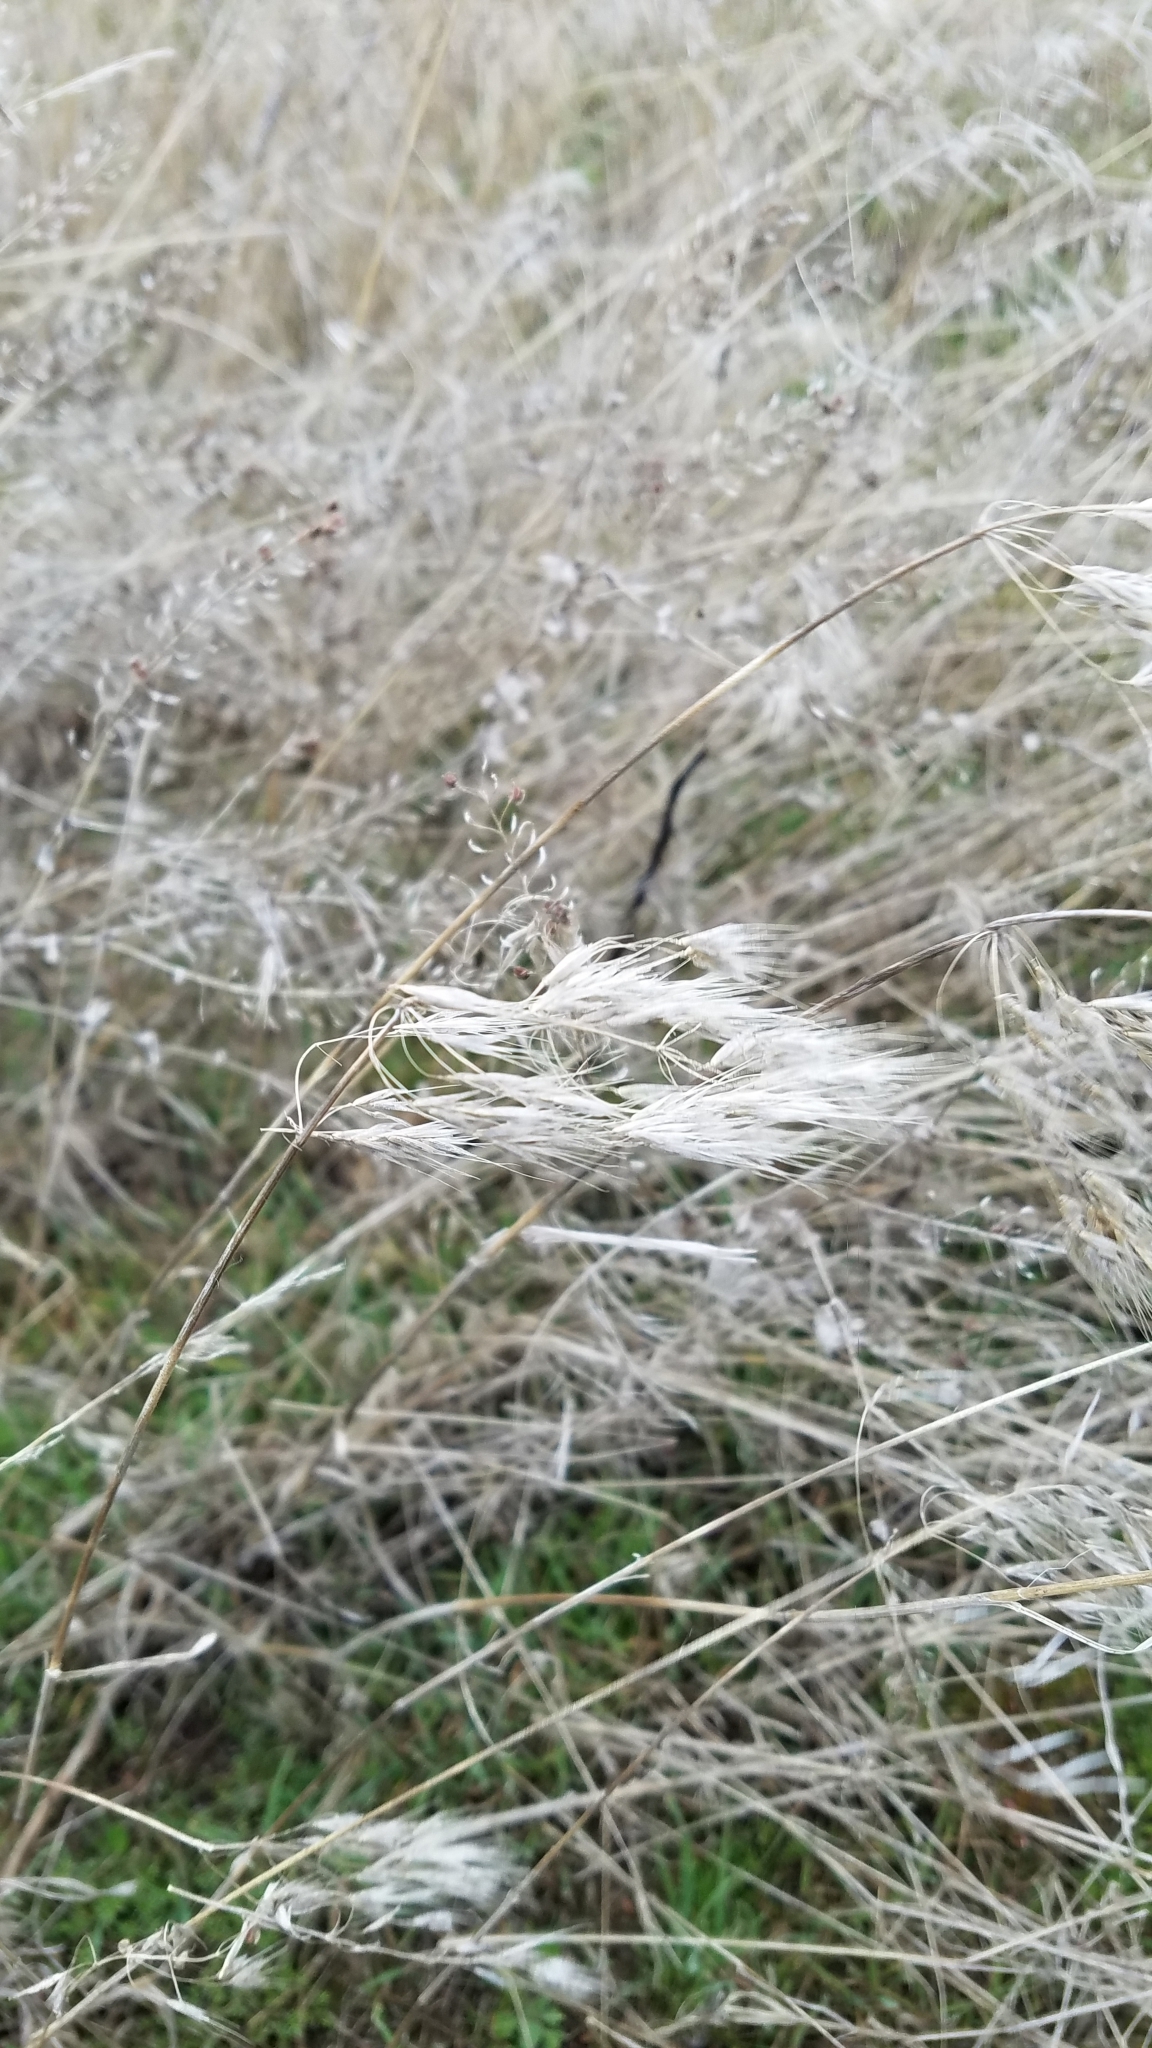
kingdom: Plantae
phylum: Tracheophyta
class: Liliopsida
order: Poales
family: Poaceae
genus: Bromus
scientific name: Bromus tectorum
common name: Cheatgrass
